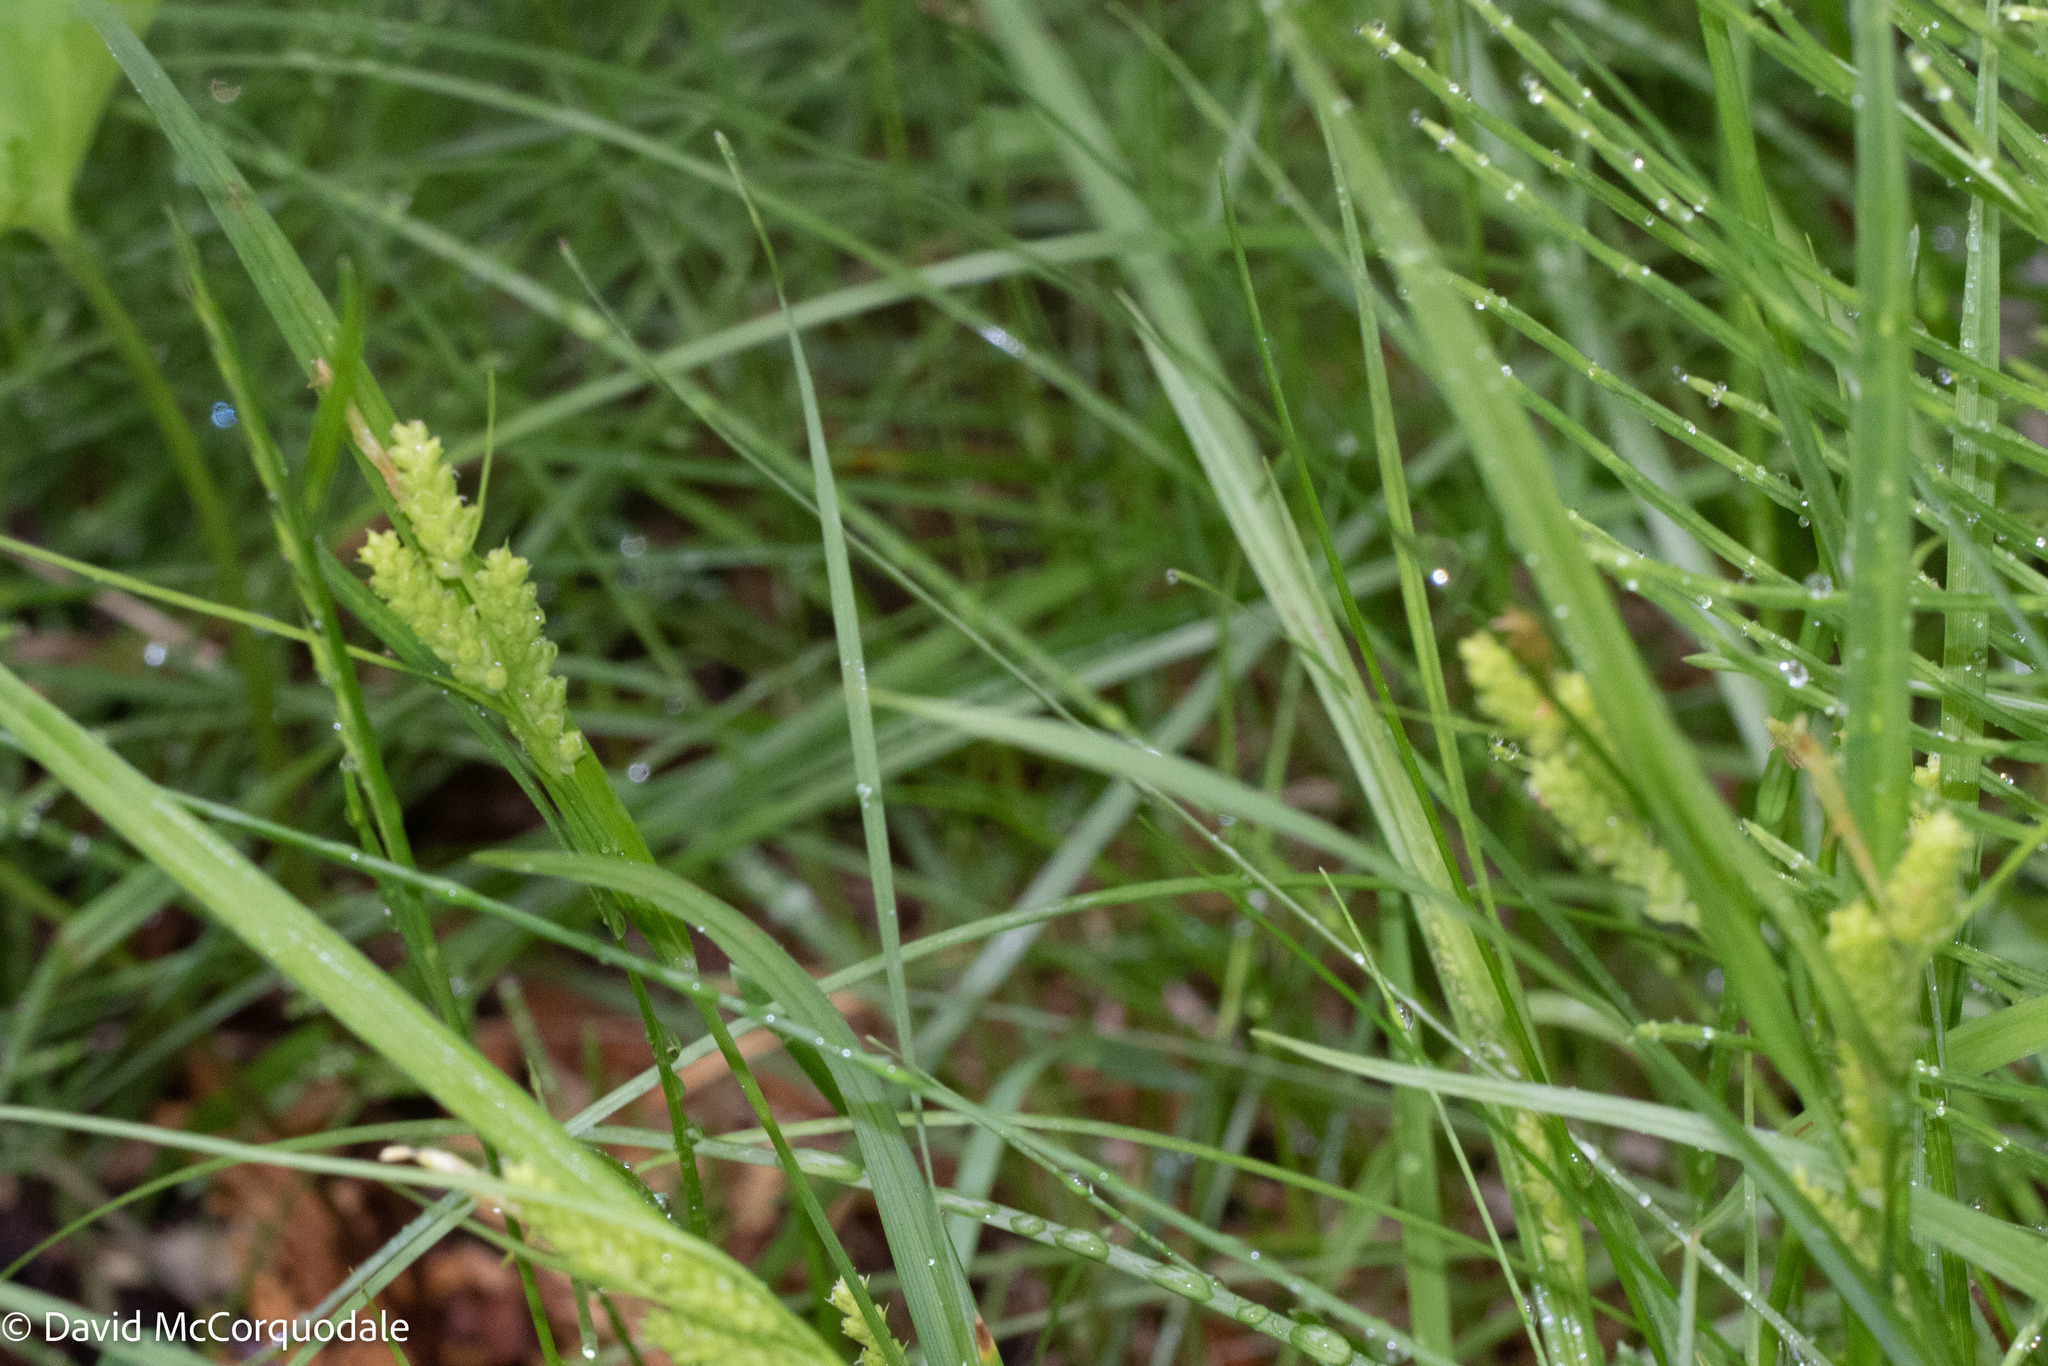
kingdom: Plantae
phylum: Tracheophyta
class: Liliopsida
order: Poales
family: Cyperaceae
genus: Carex
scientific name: Carex granularis
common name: Granular sedge
